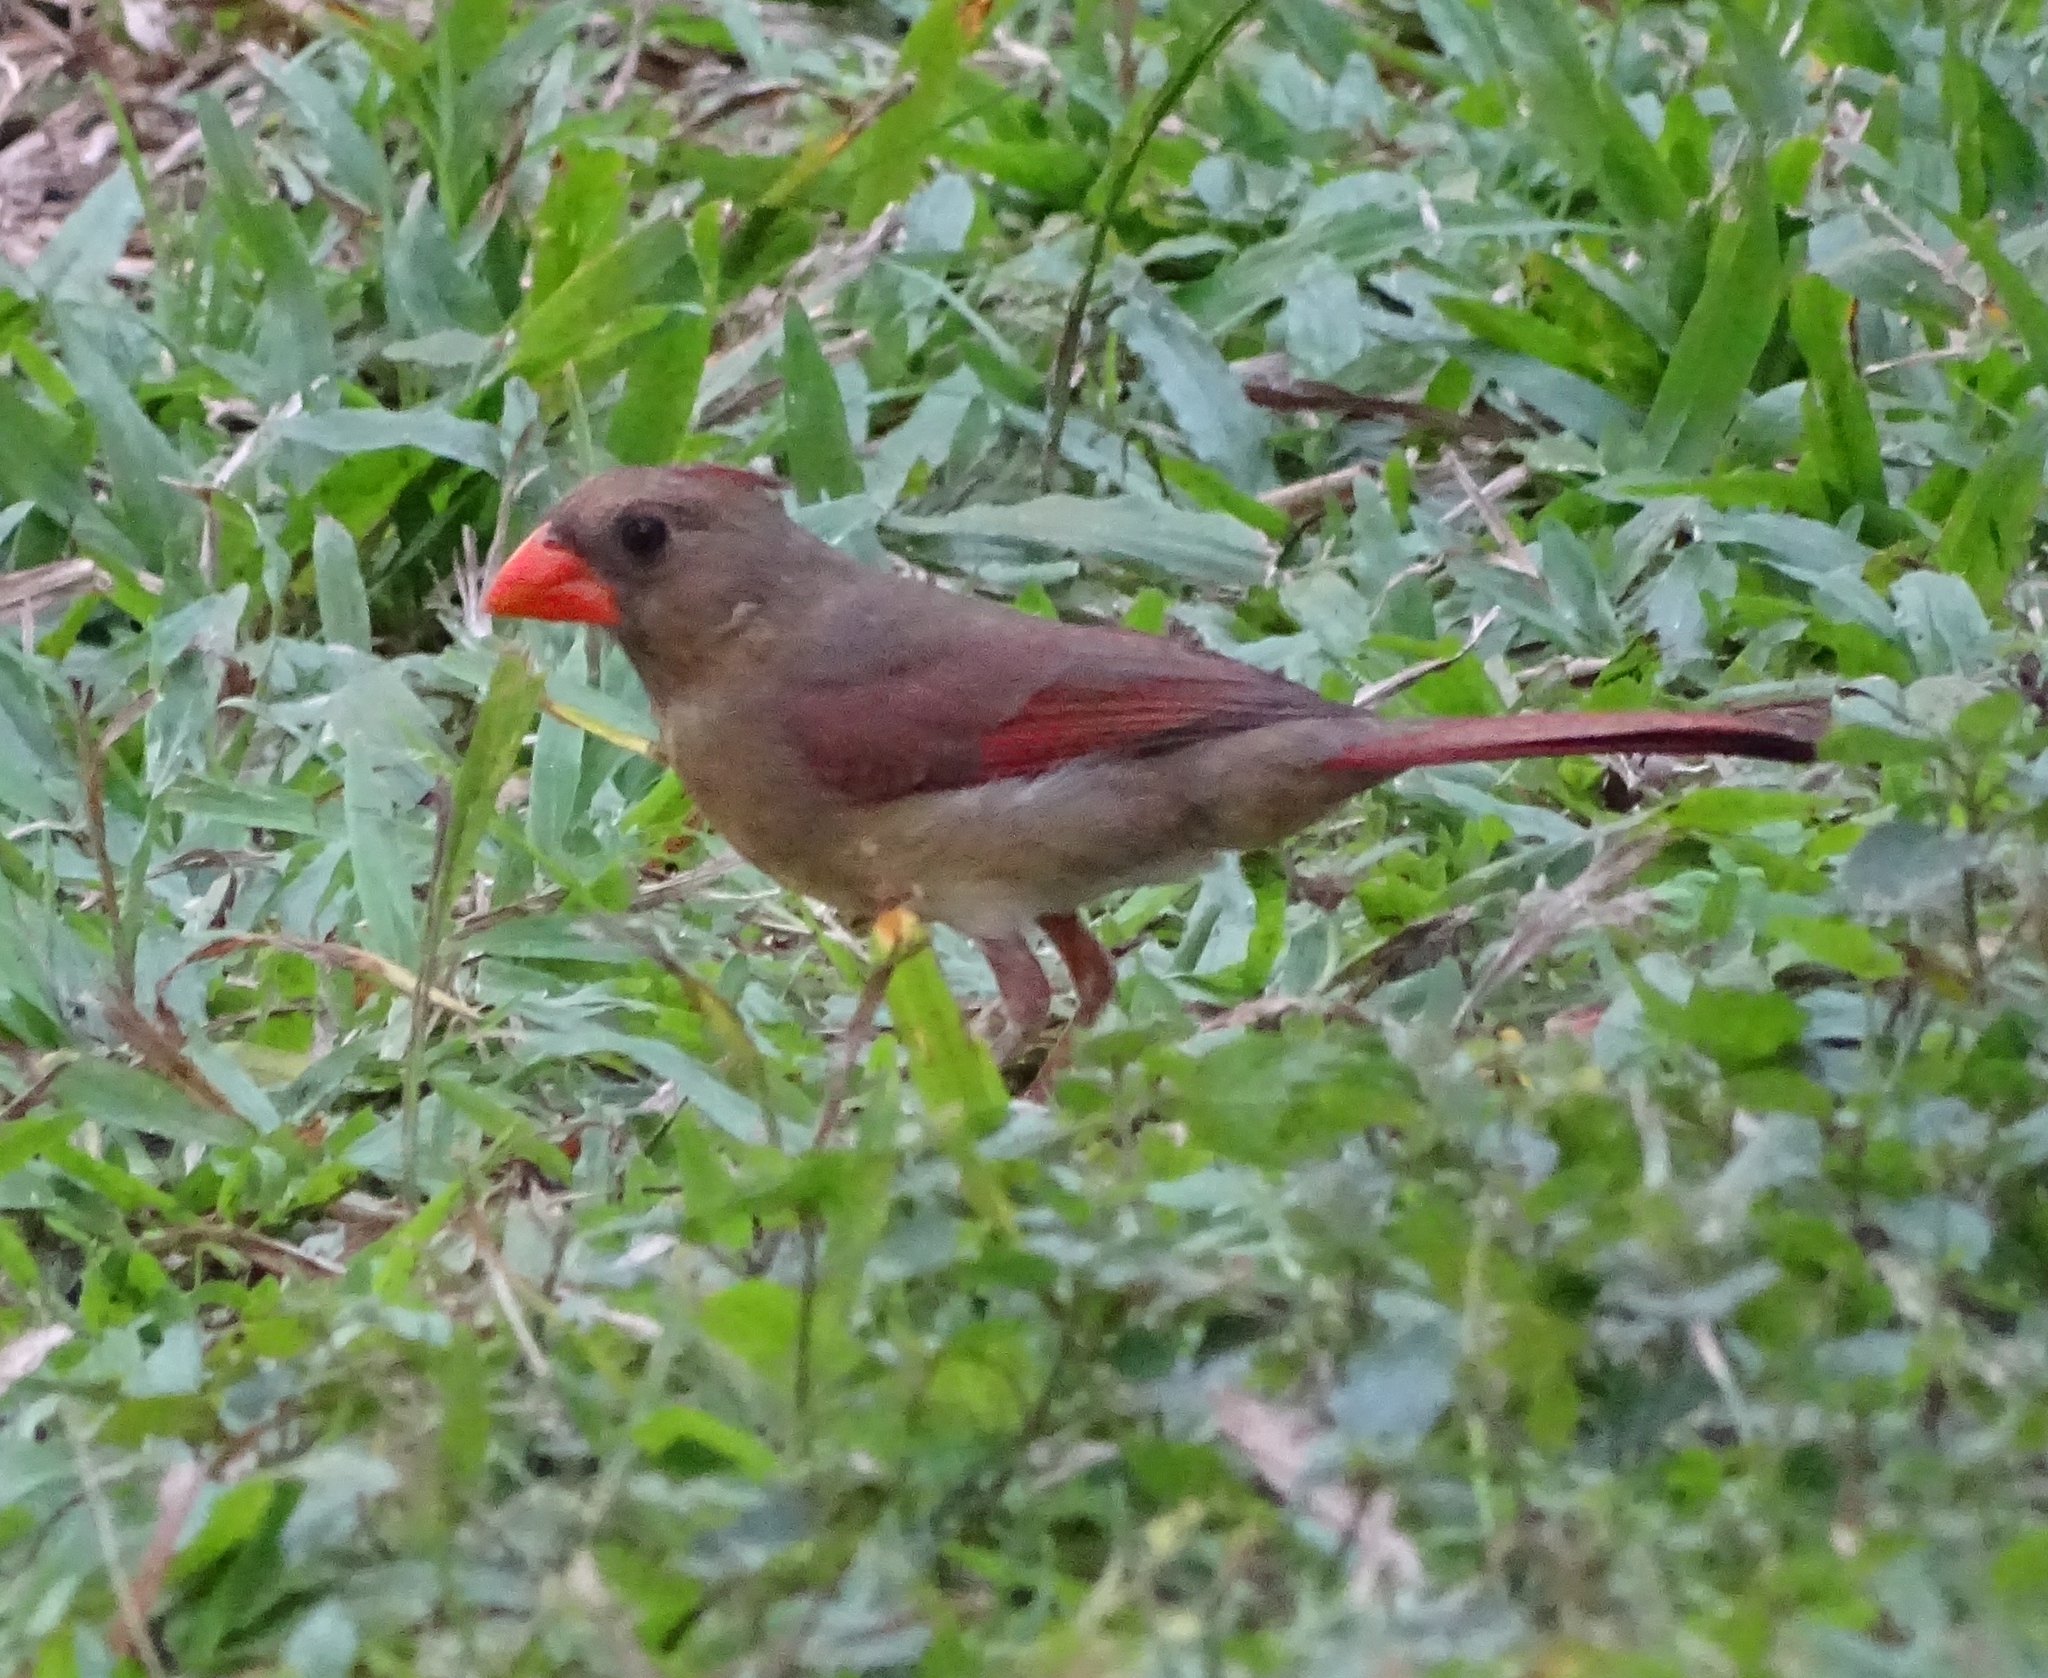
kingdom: Animalia
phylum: Chordata
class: Aves
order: Passeriformes
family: Cardinalidae
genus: Cardinalis
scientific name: Cardinalis cardinalis
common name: Northern cardinal
